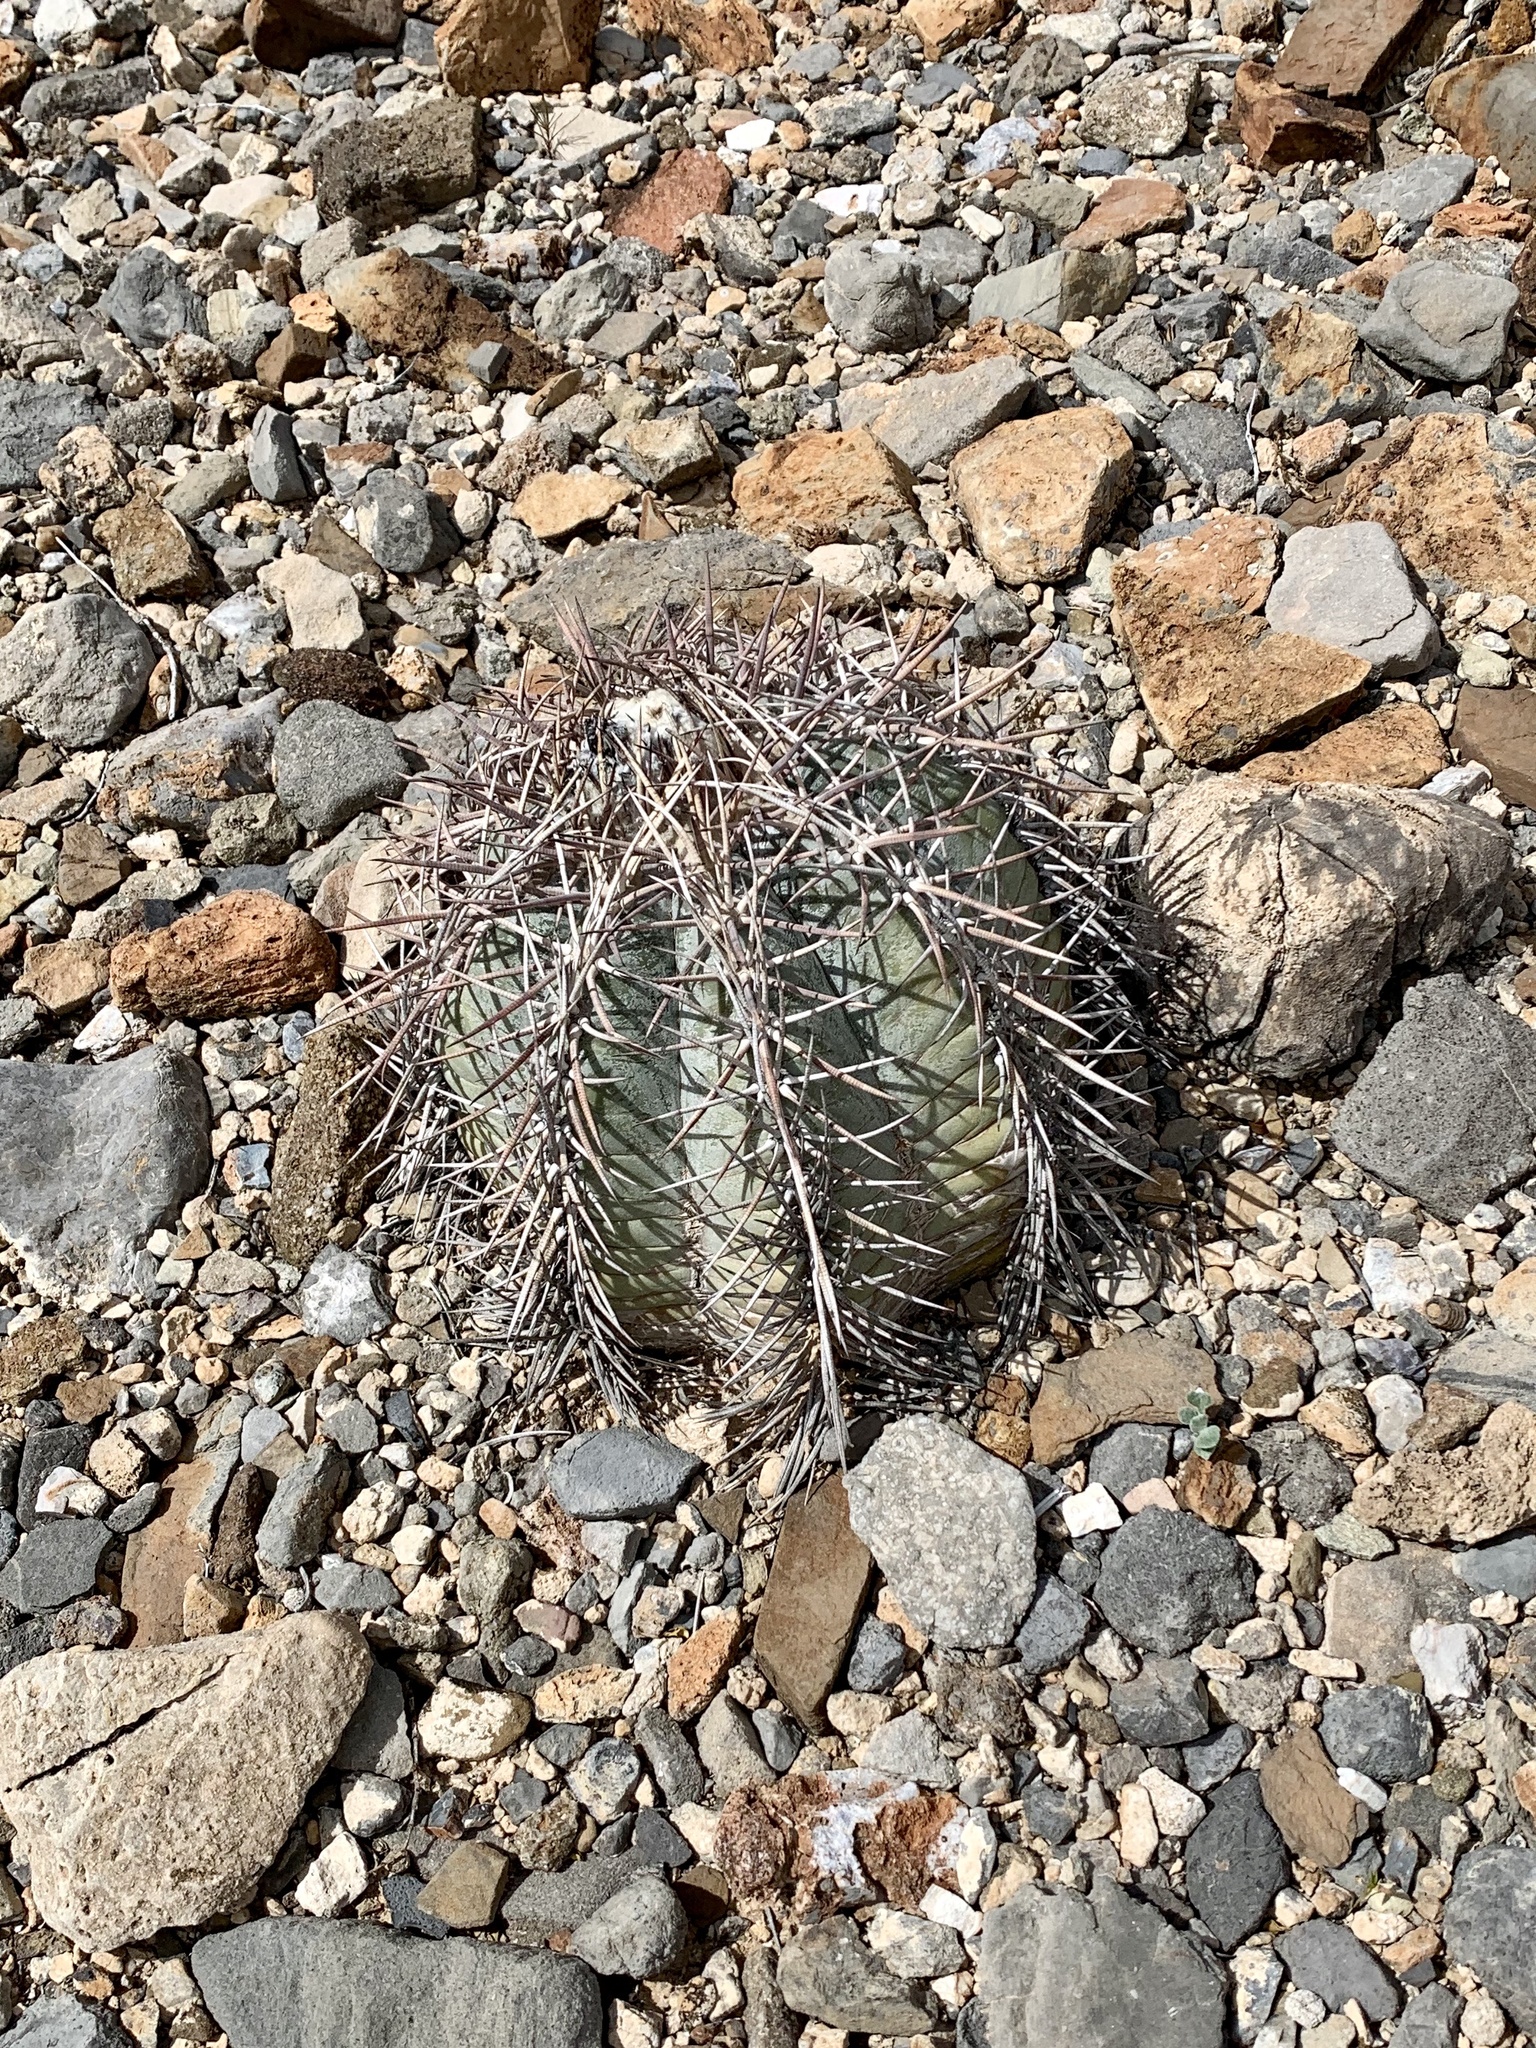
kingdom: Plantae
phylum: Tracheophyta
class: Magnoliopsida
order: Caryophyllales
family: Cactaceae
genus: Echinocactus
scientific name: Echinocactus horizonthalonius
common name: Devilshead
